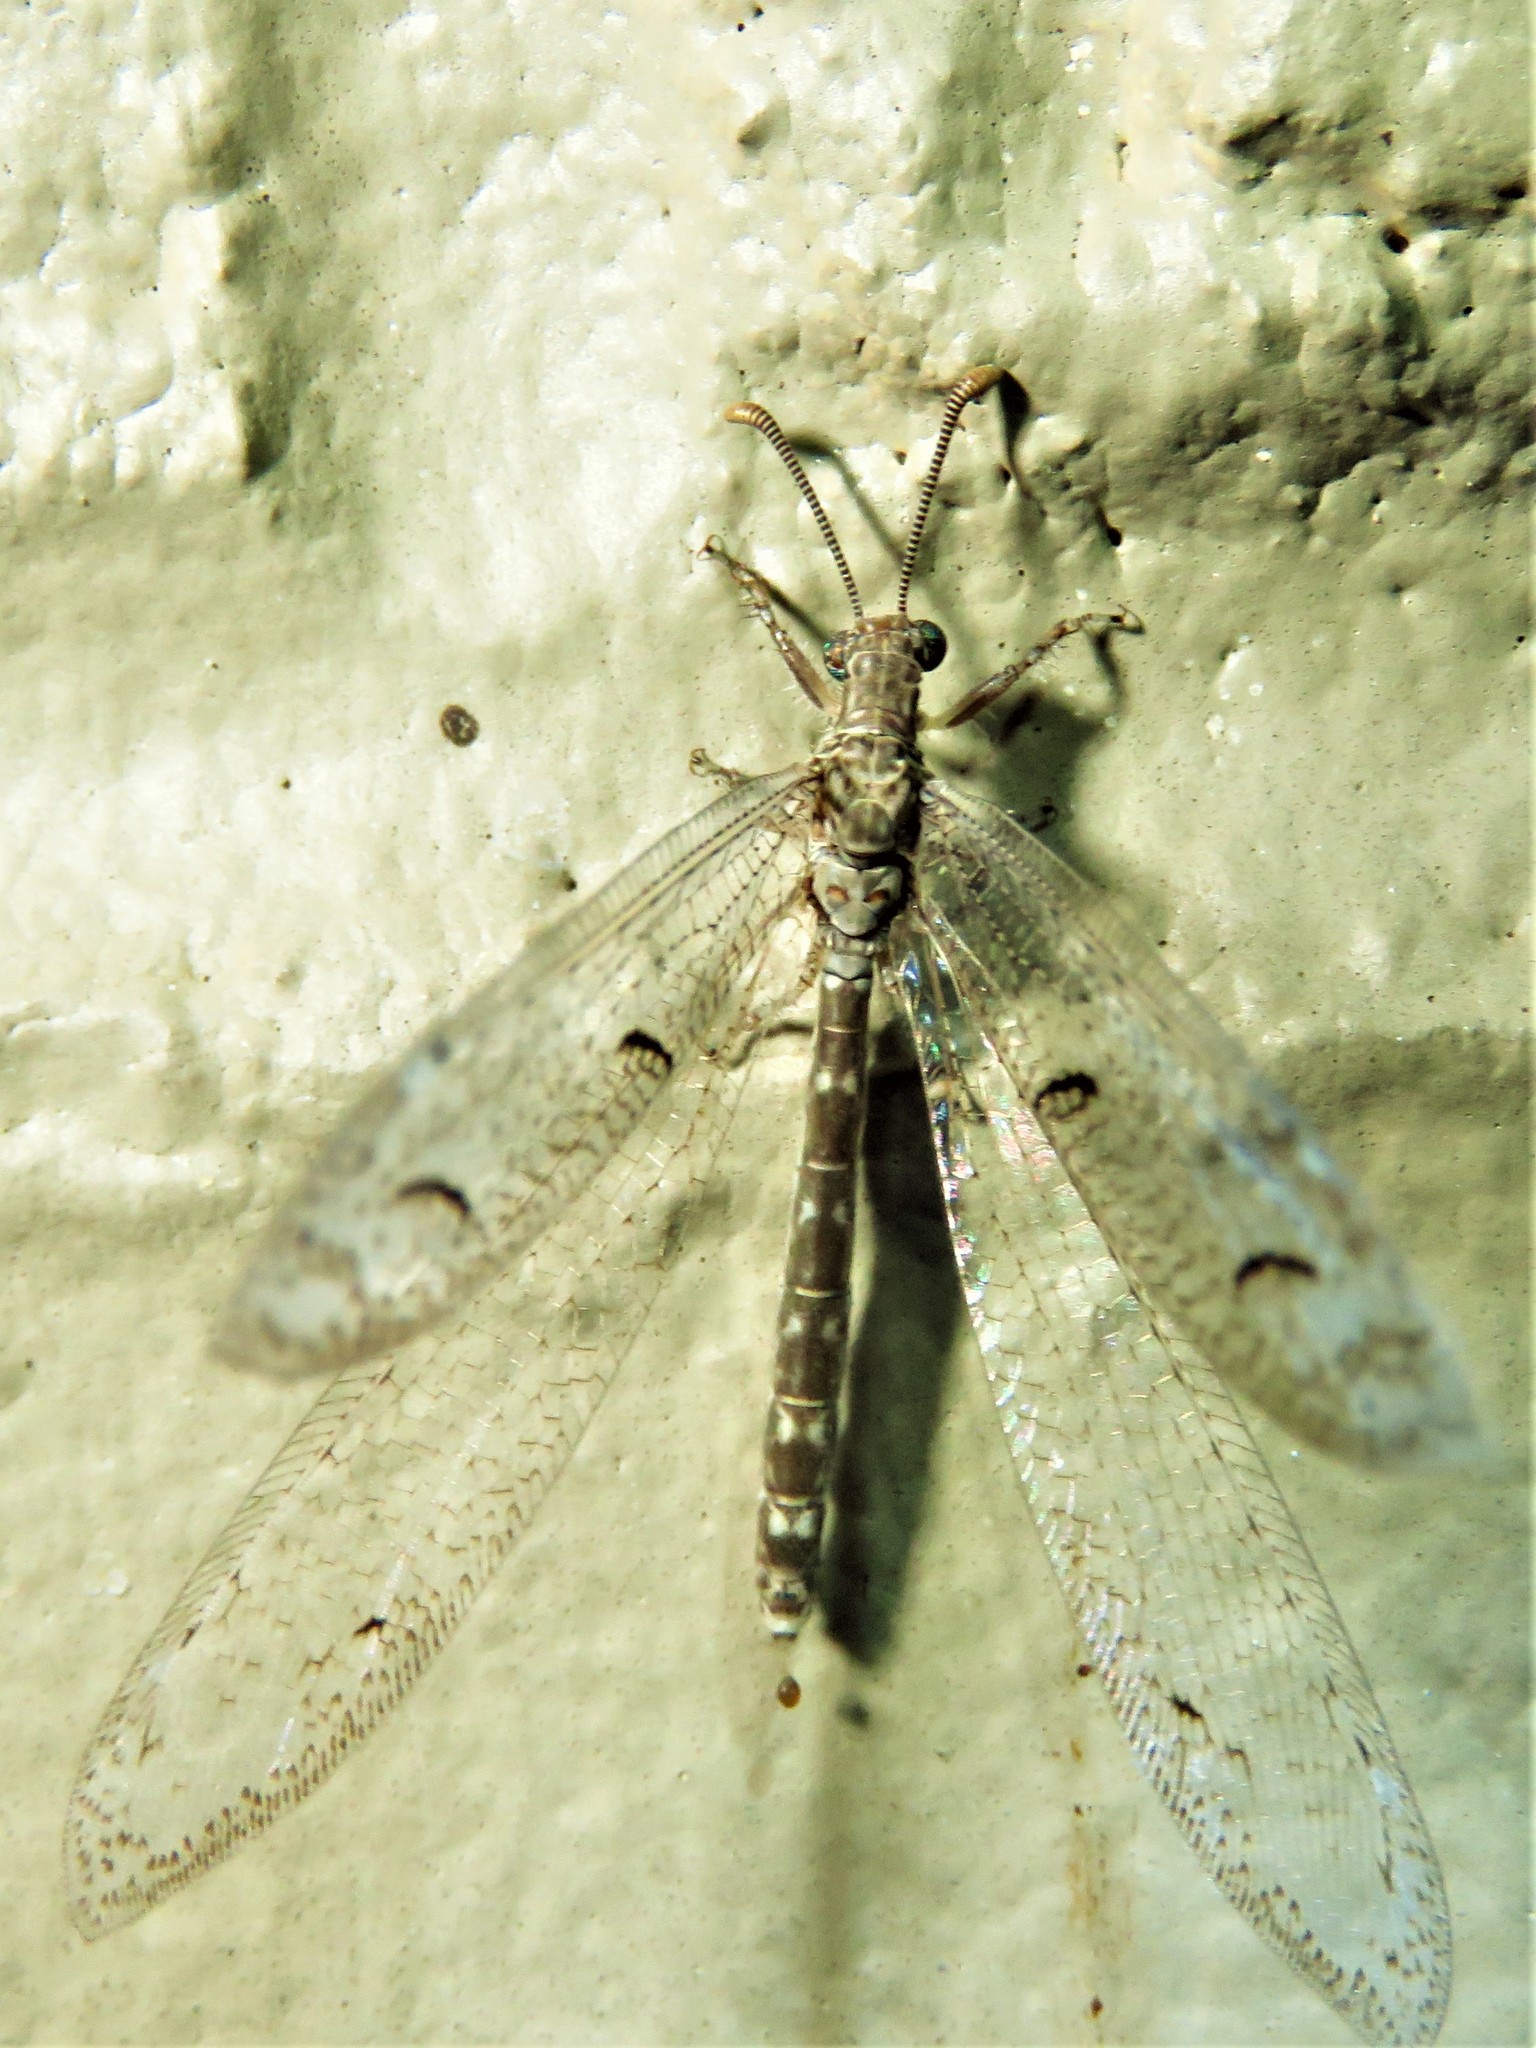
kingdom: Animalia
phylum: Arthropoda
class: Insecta
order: Neuroptera
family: Myrmeleontidae
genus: Euptilon
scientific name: Euptilon ornatum
